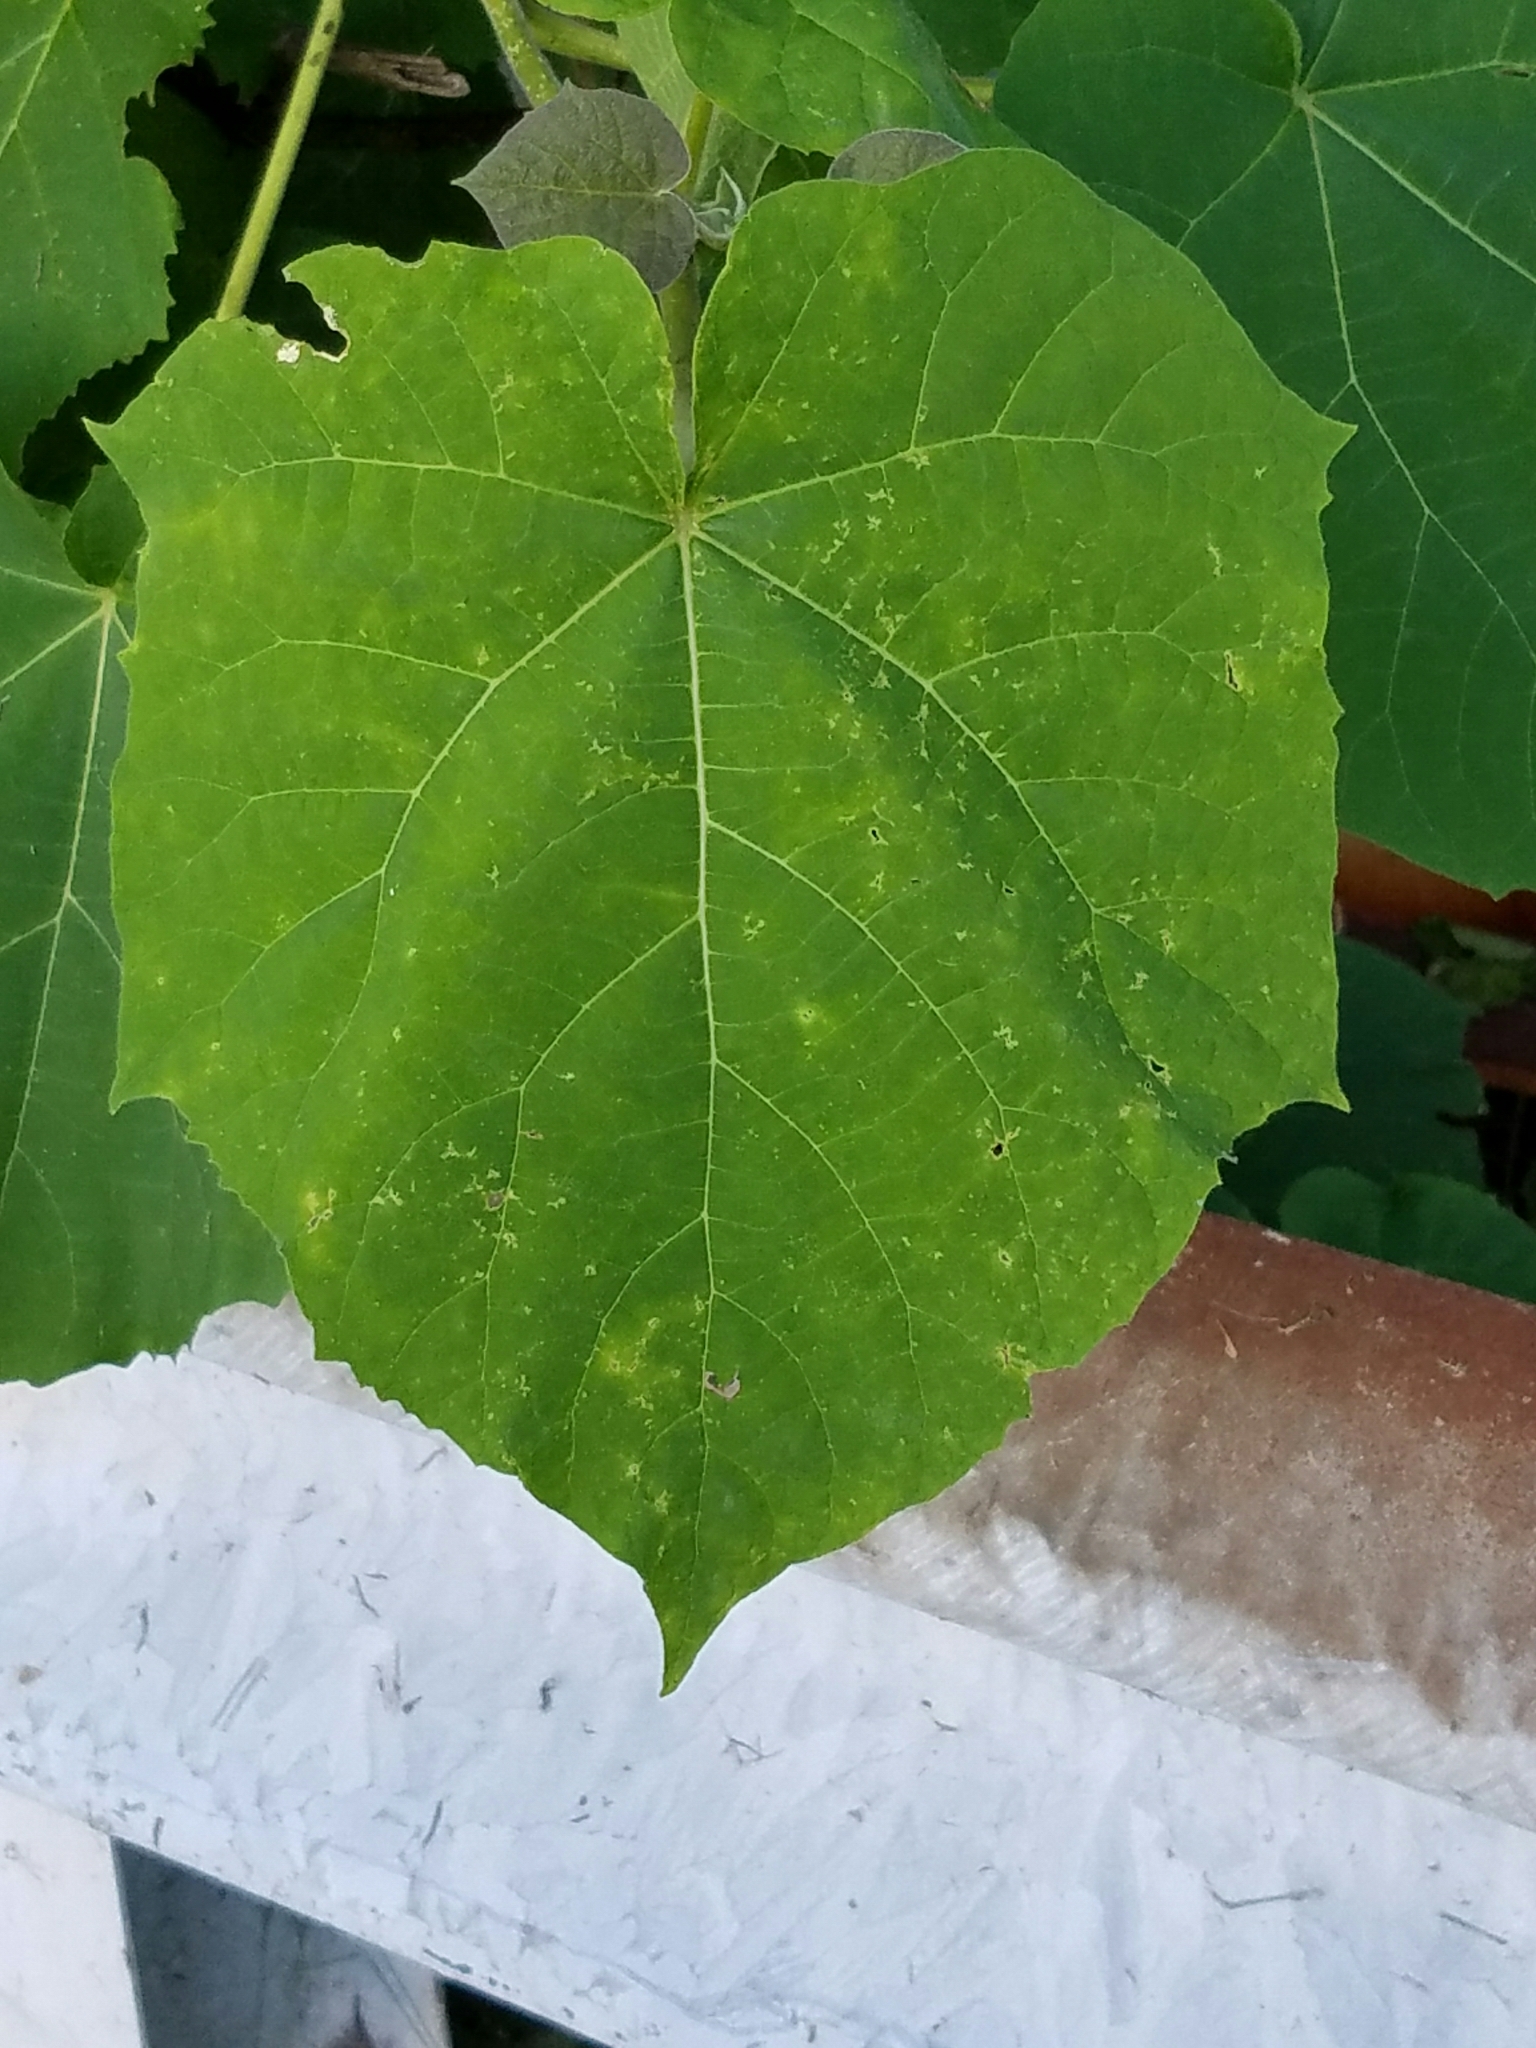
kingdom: Plantae
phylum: Tracheophyta
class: Magnoliopsida
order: Lamiales
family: Paulowniaceae
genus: Paulownia
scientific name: Paulownia tomentosa
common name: Foxglove-tree
